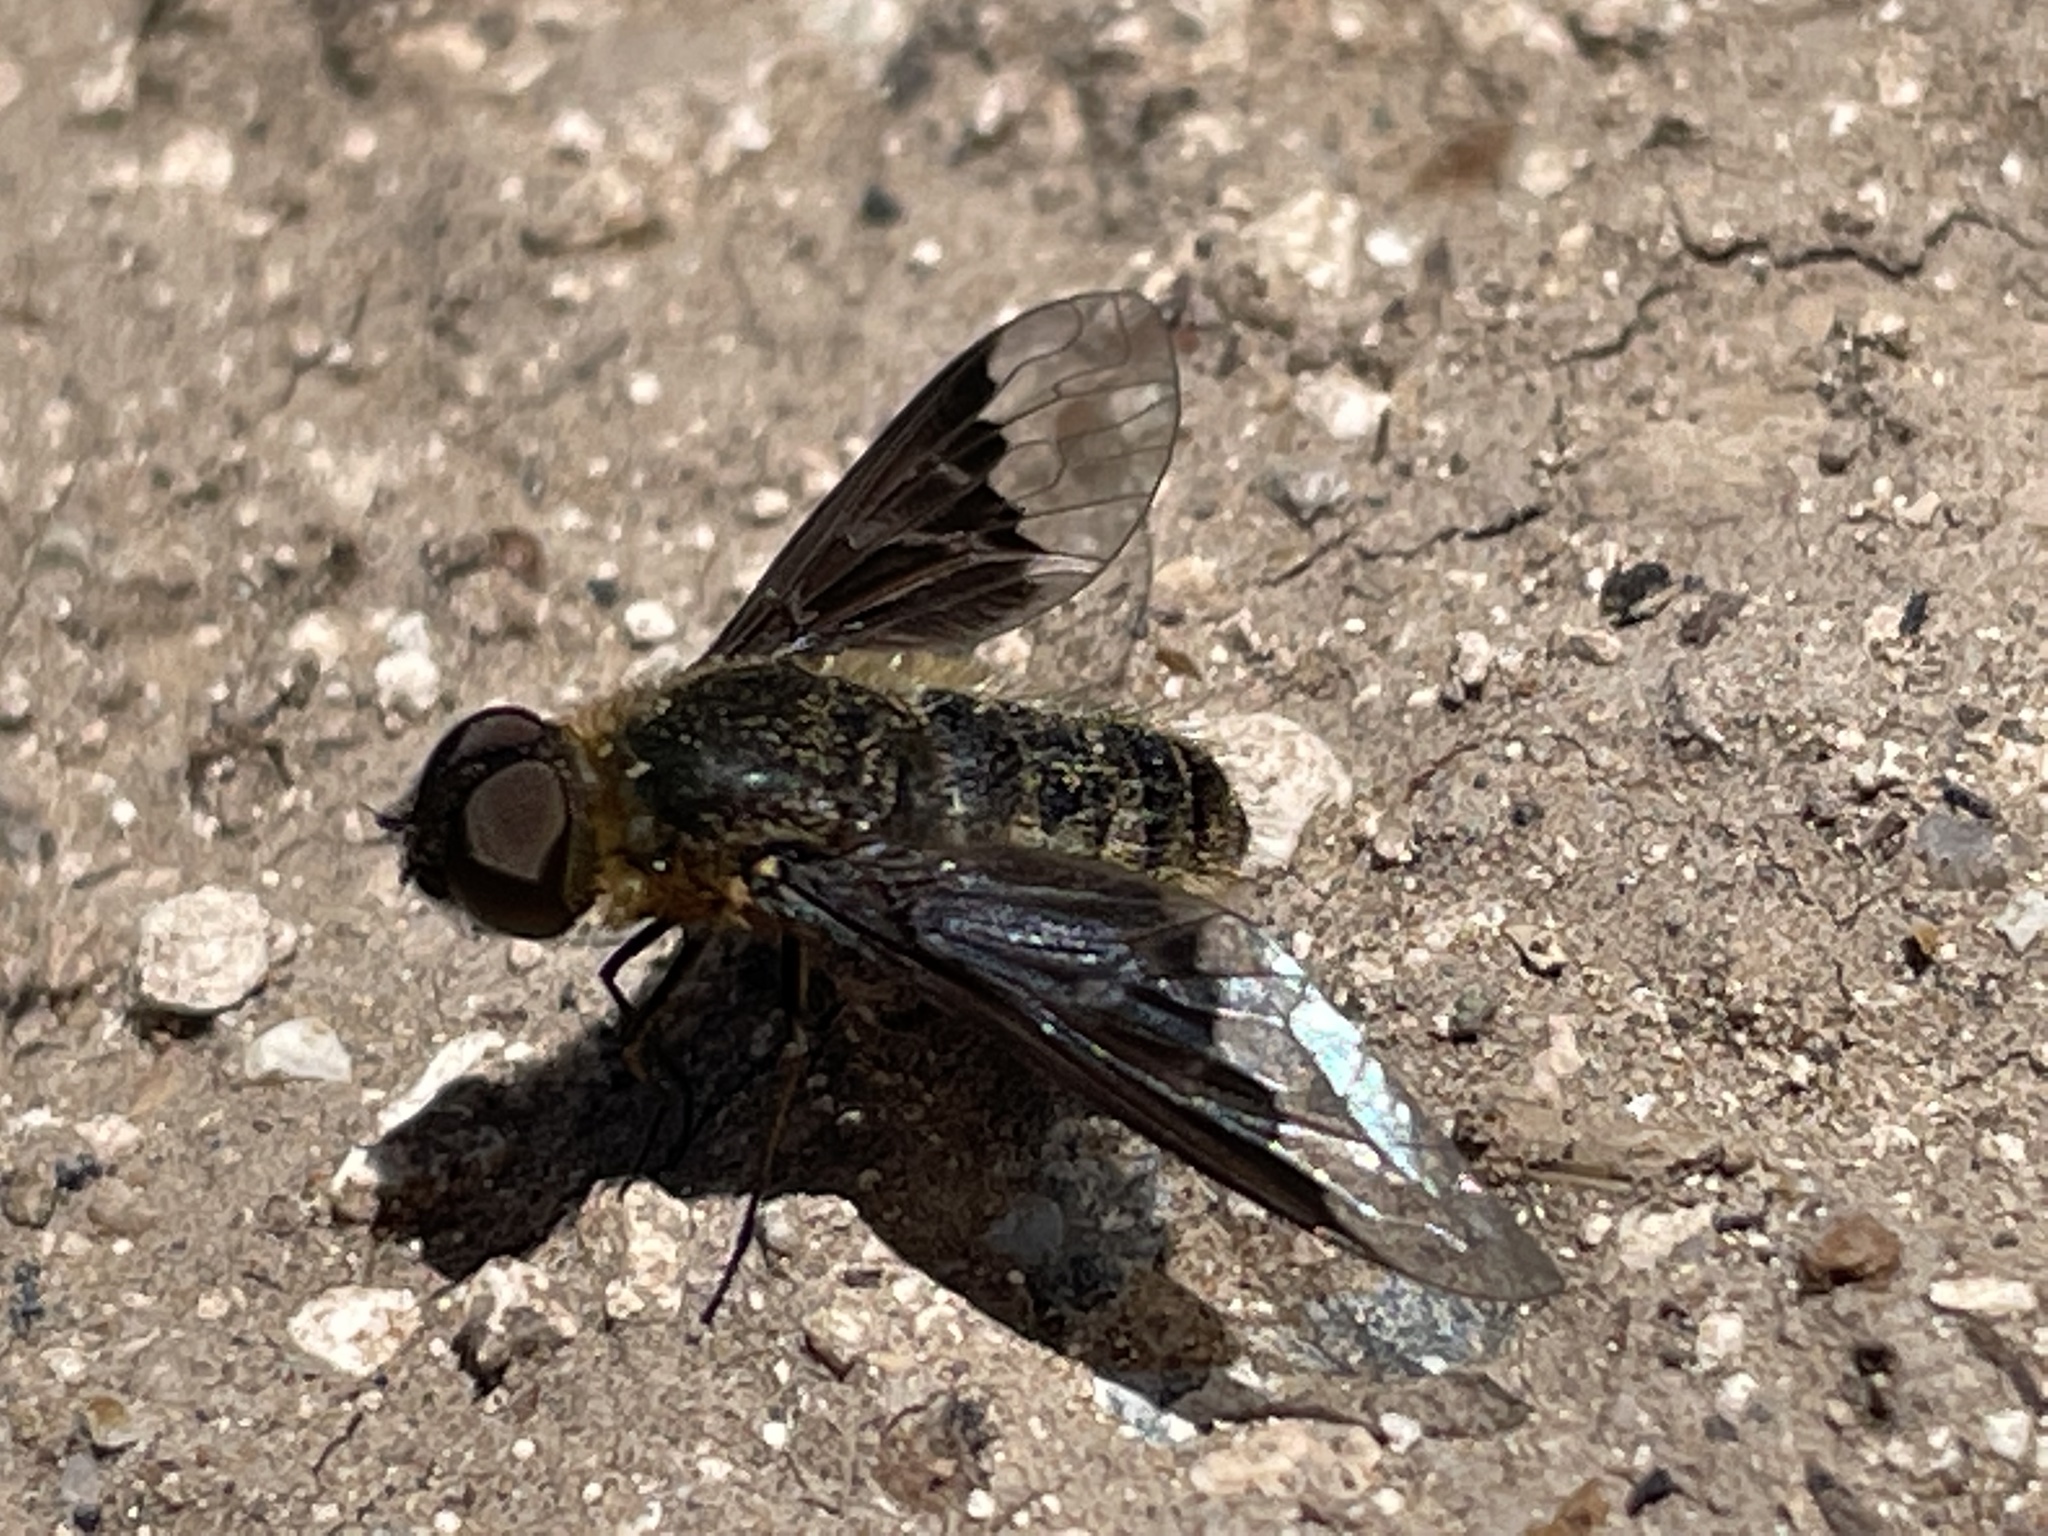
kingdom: Animalia
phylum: Arthropoda
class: Insecta
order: Diptera
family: Bombyliidae
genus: Hemipenthes
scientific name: Hemipenthes seminiger
